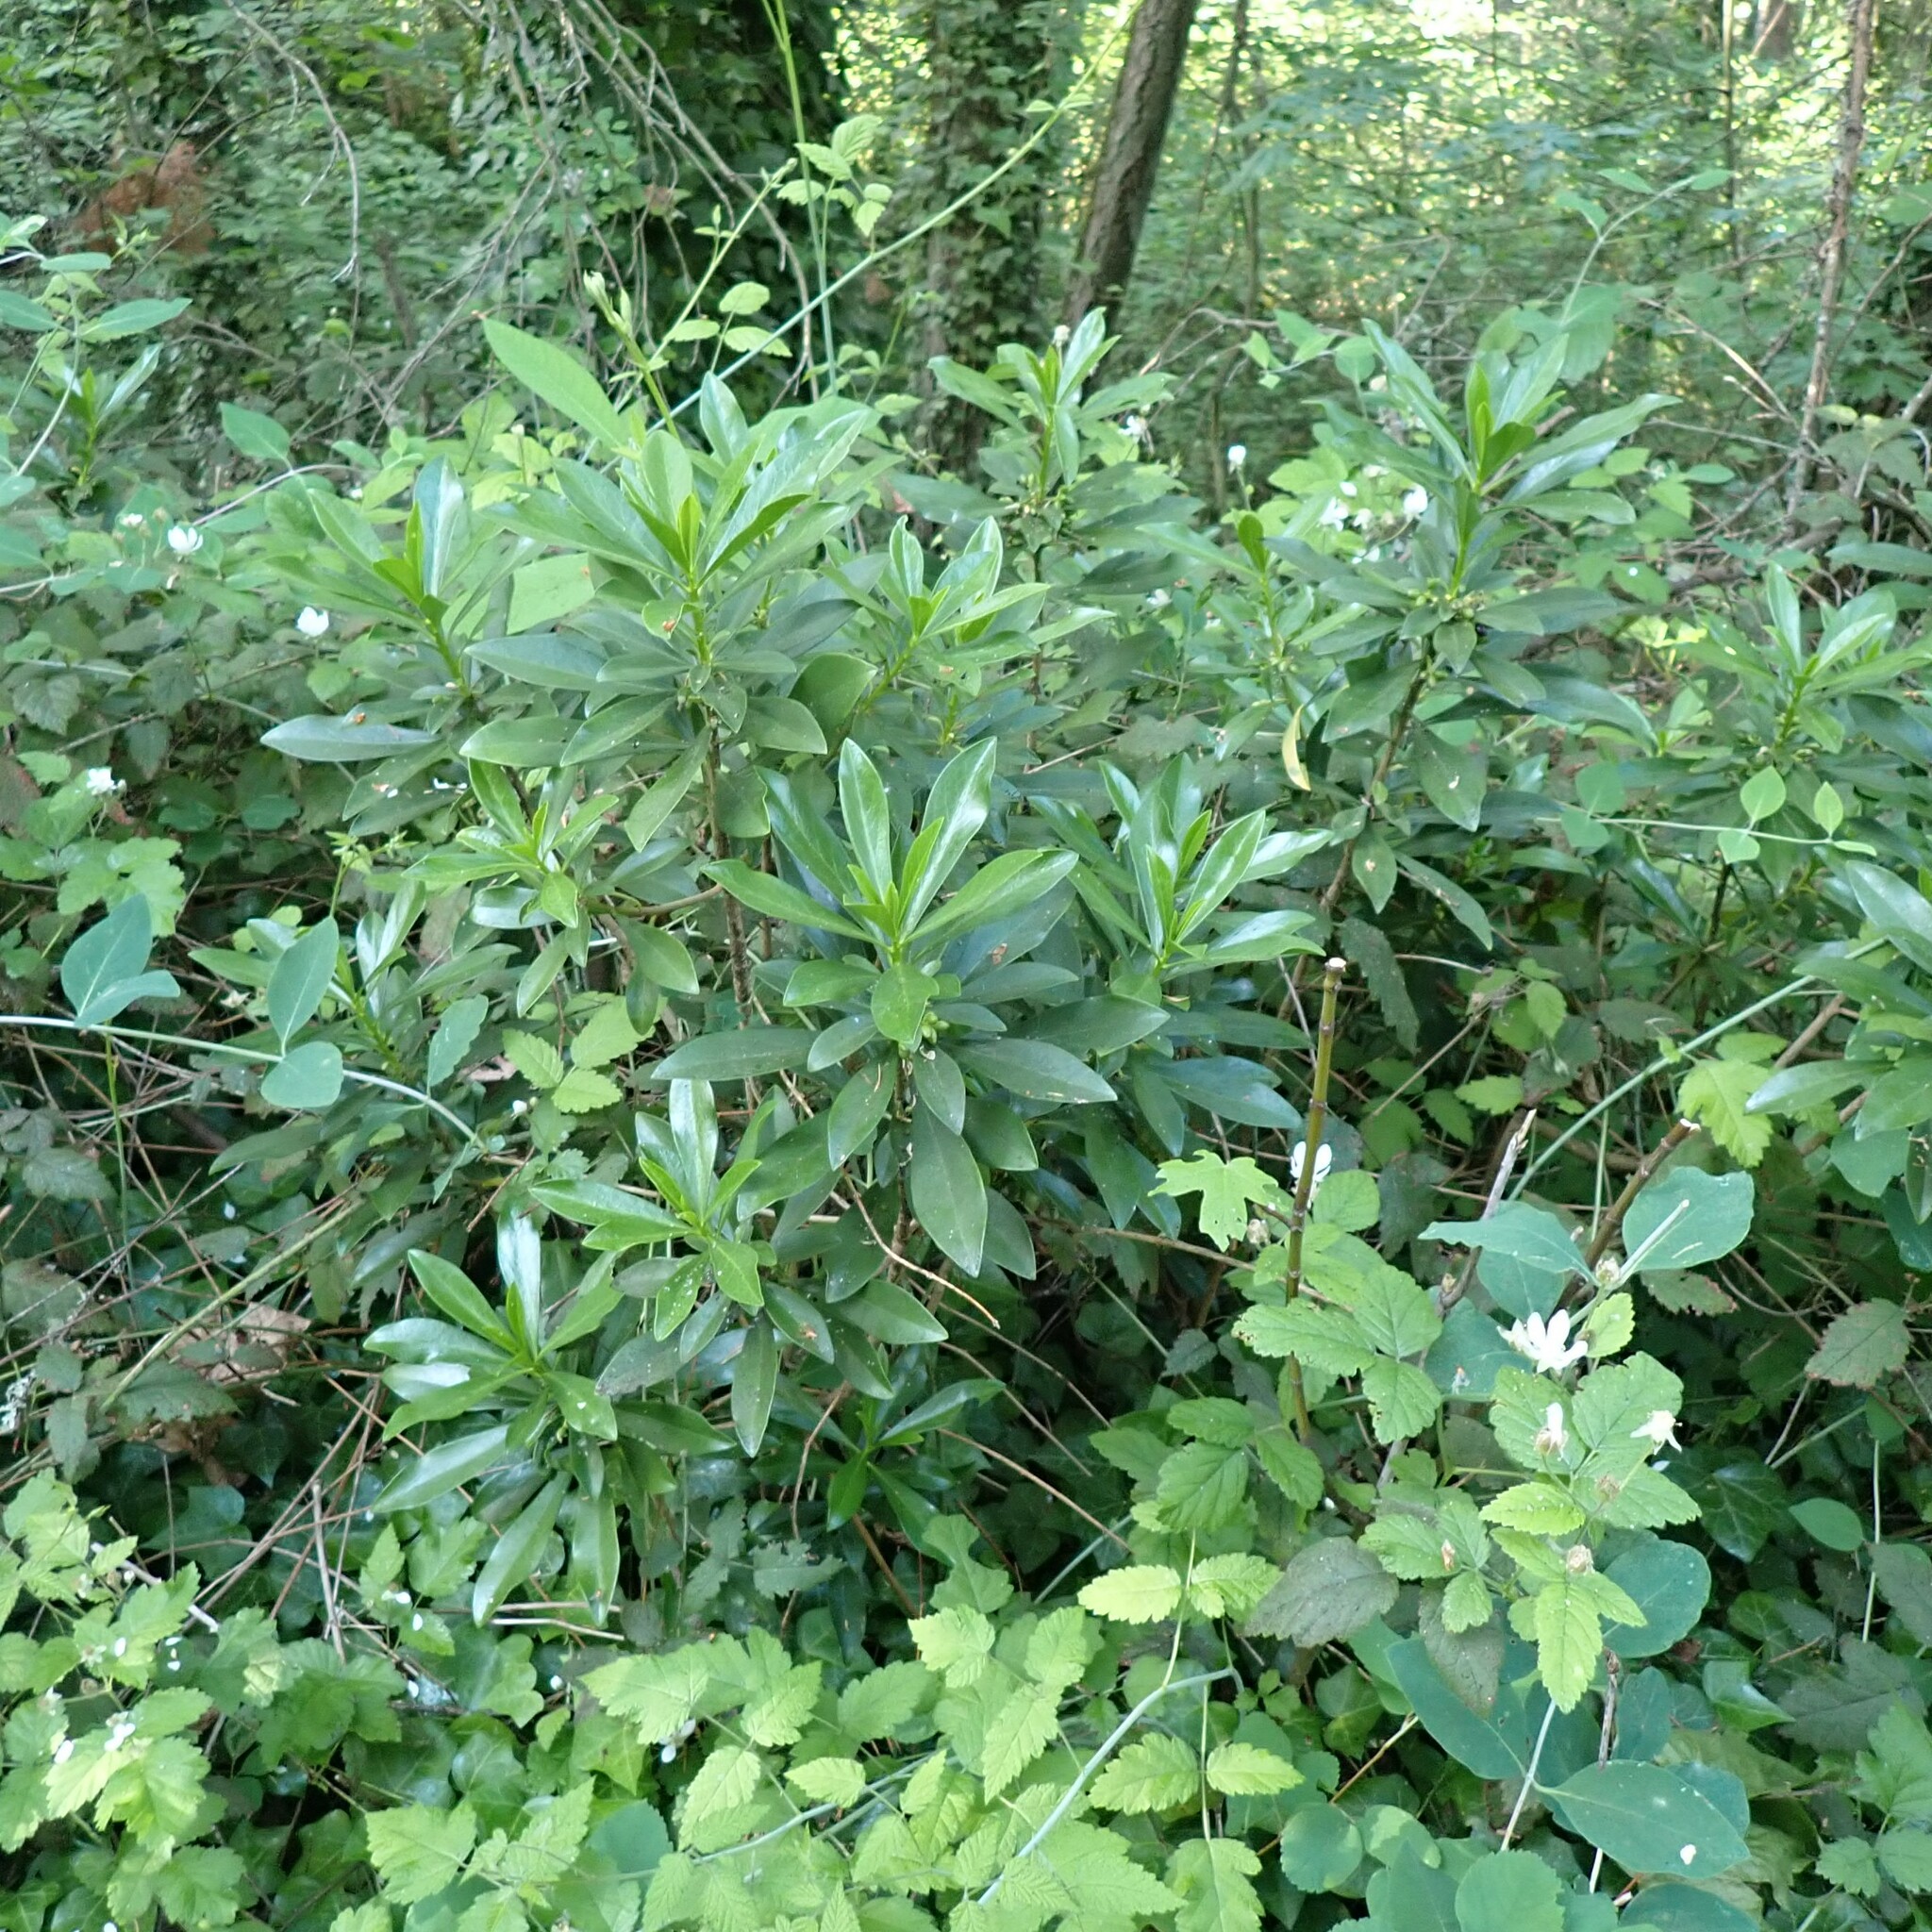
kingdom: Plantae
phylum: Tracheophyta
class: Magnoliopsida
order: Malvales
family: Thymelaeaceae
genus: Daphne
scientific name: Daphne laureola
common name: Spurge-laurel
